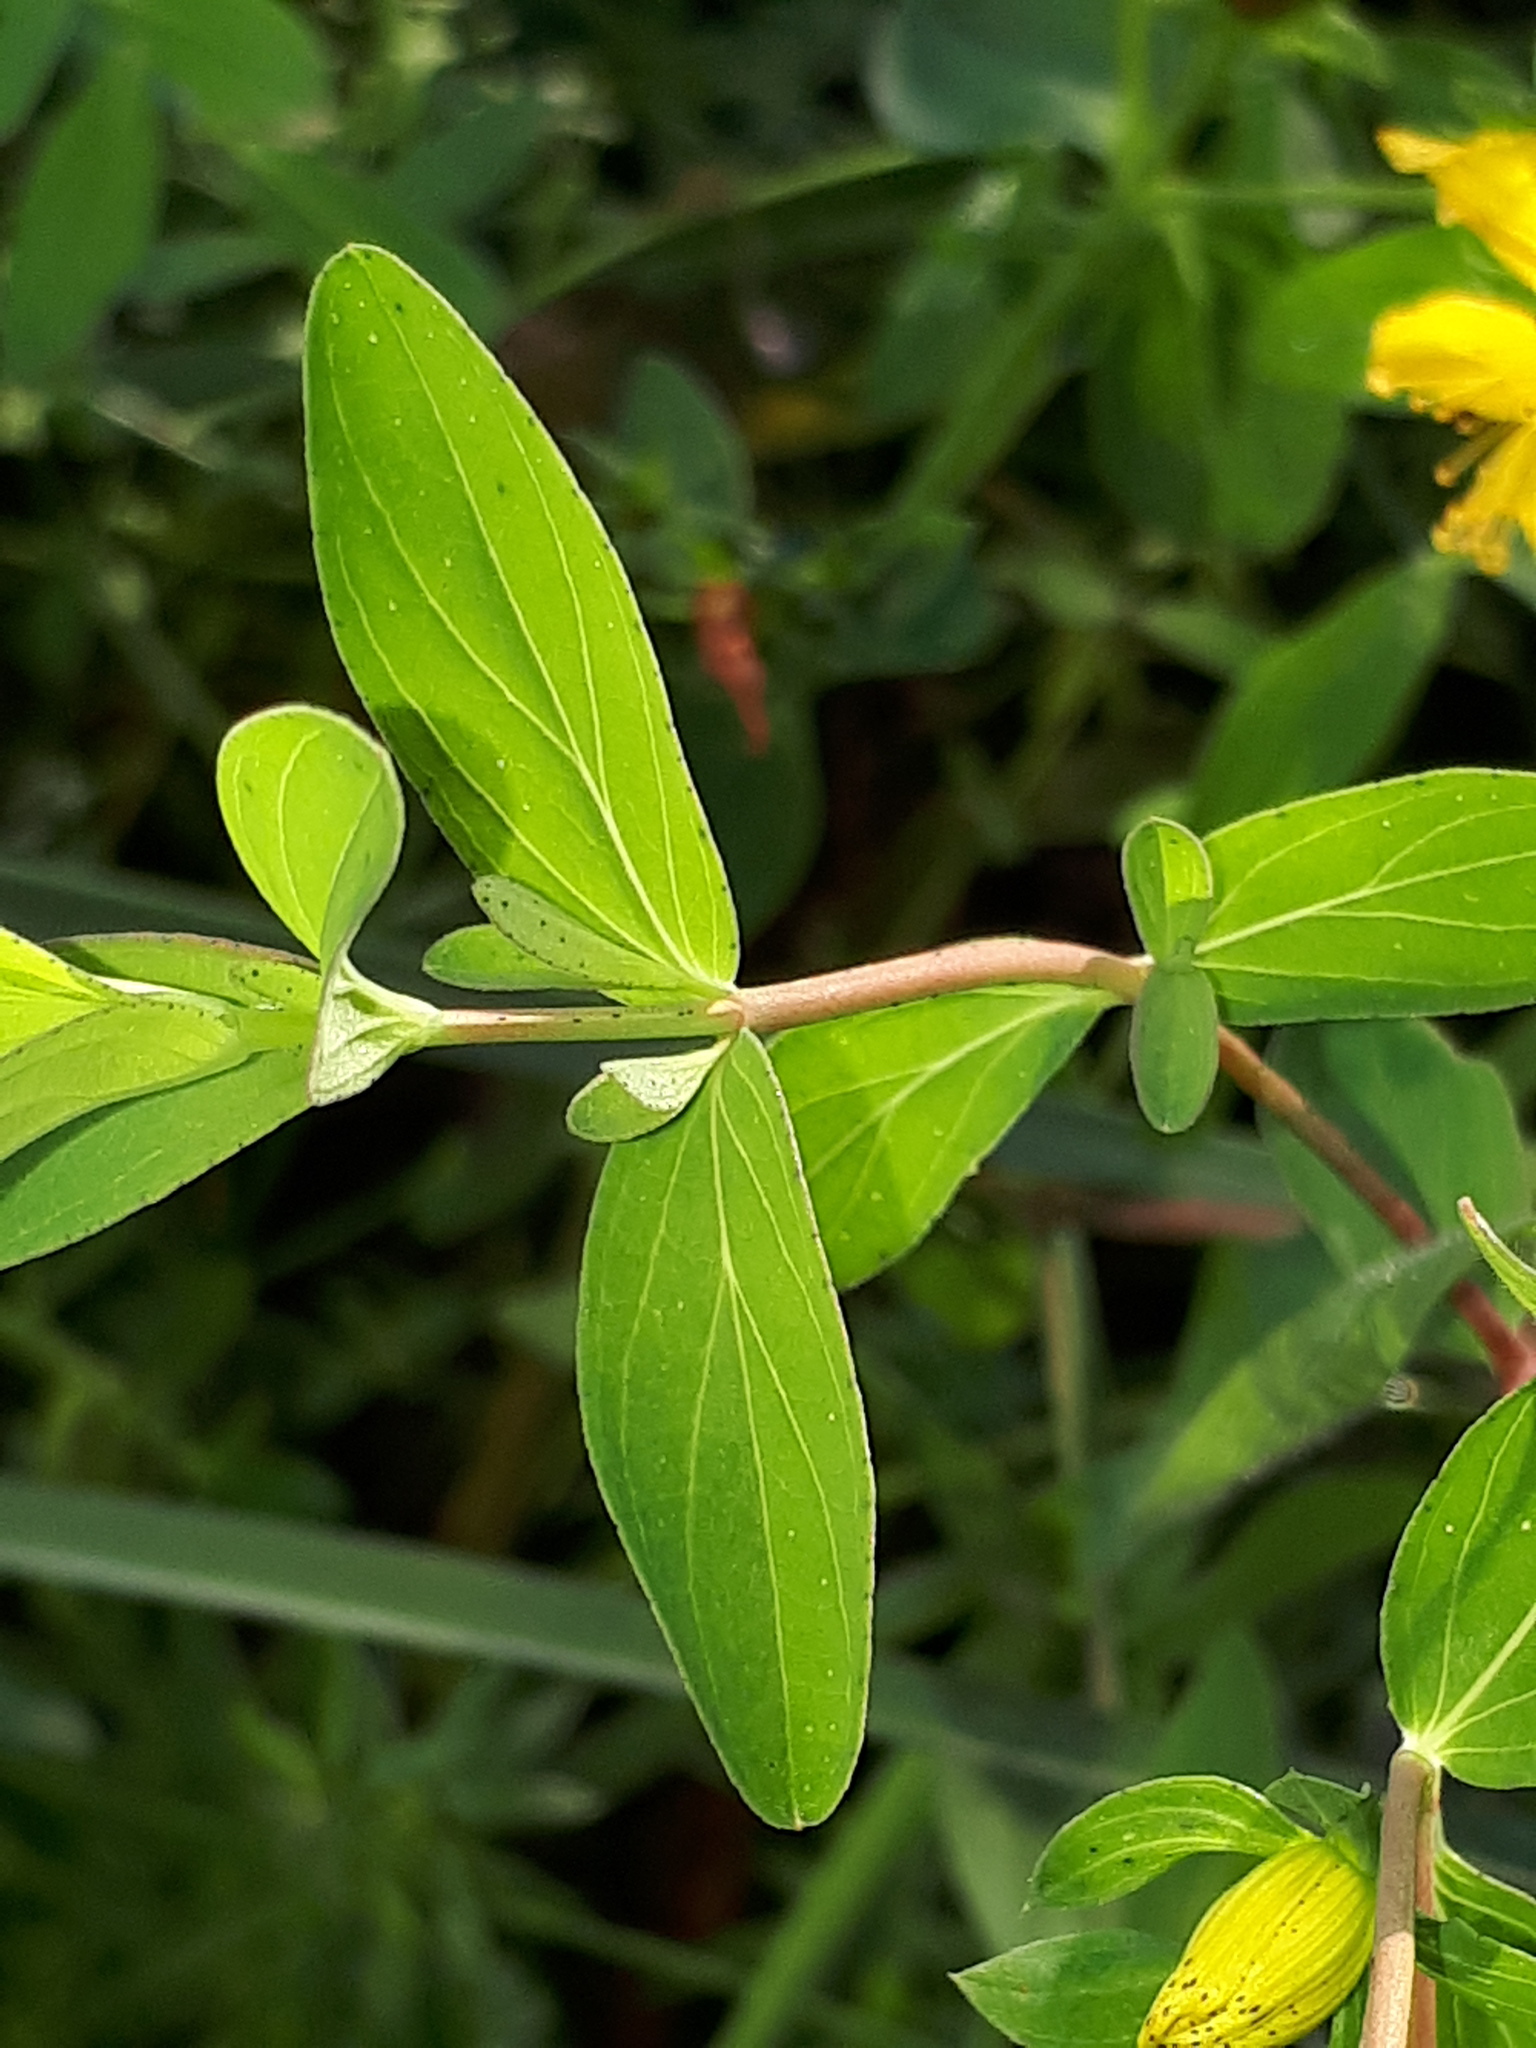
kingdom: Plantae
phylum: Tracheophyta
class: Magnoliopsida
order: Malpighiales
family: Hypericaceae
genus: Hypericum
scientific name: Hypericum desetangsii
